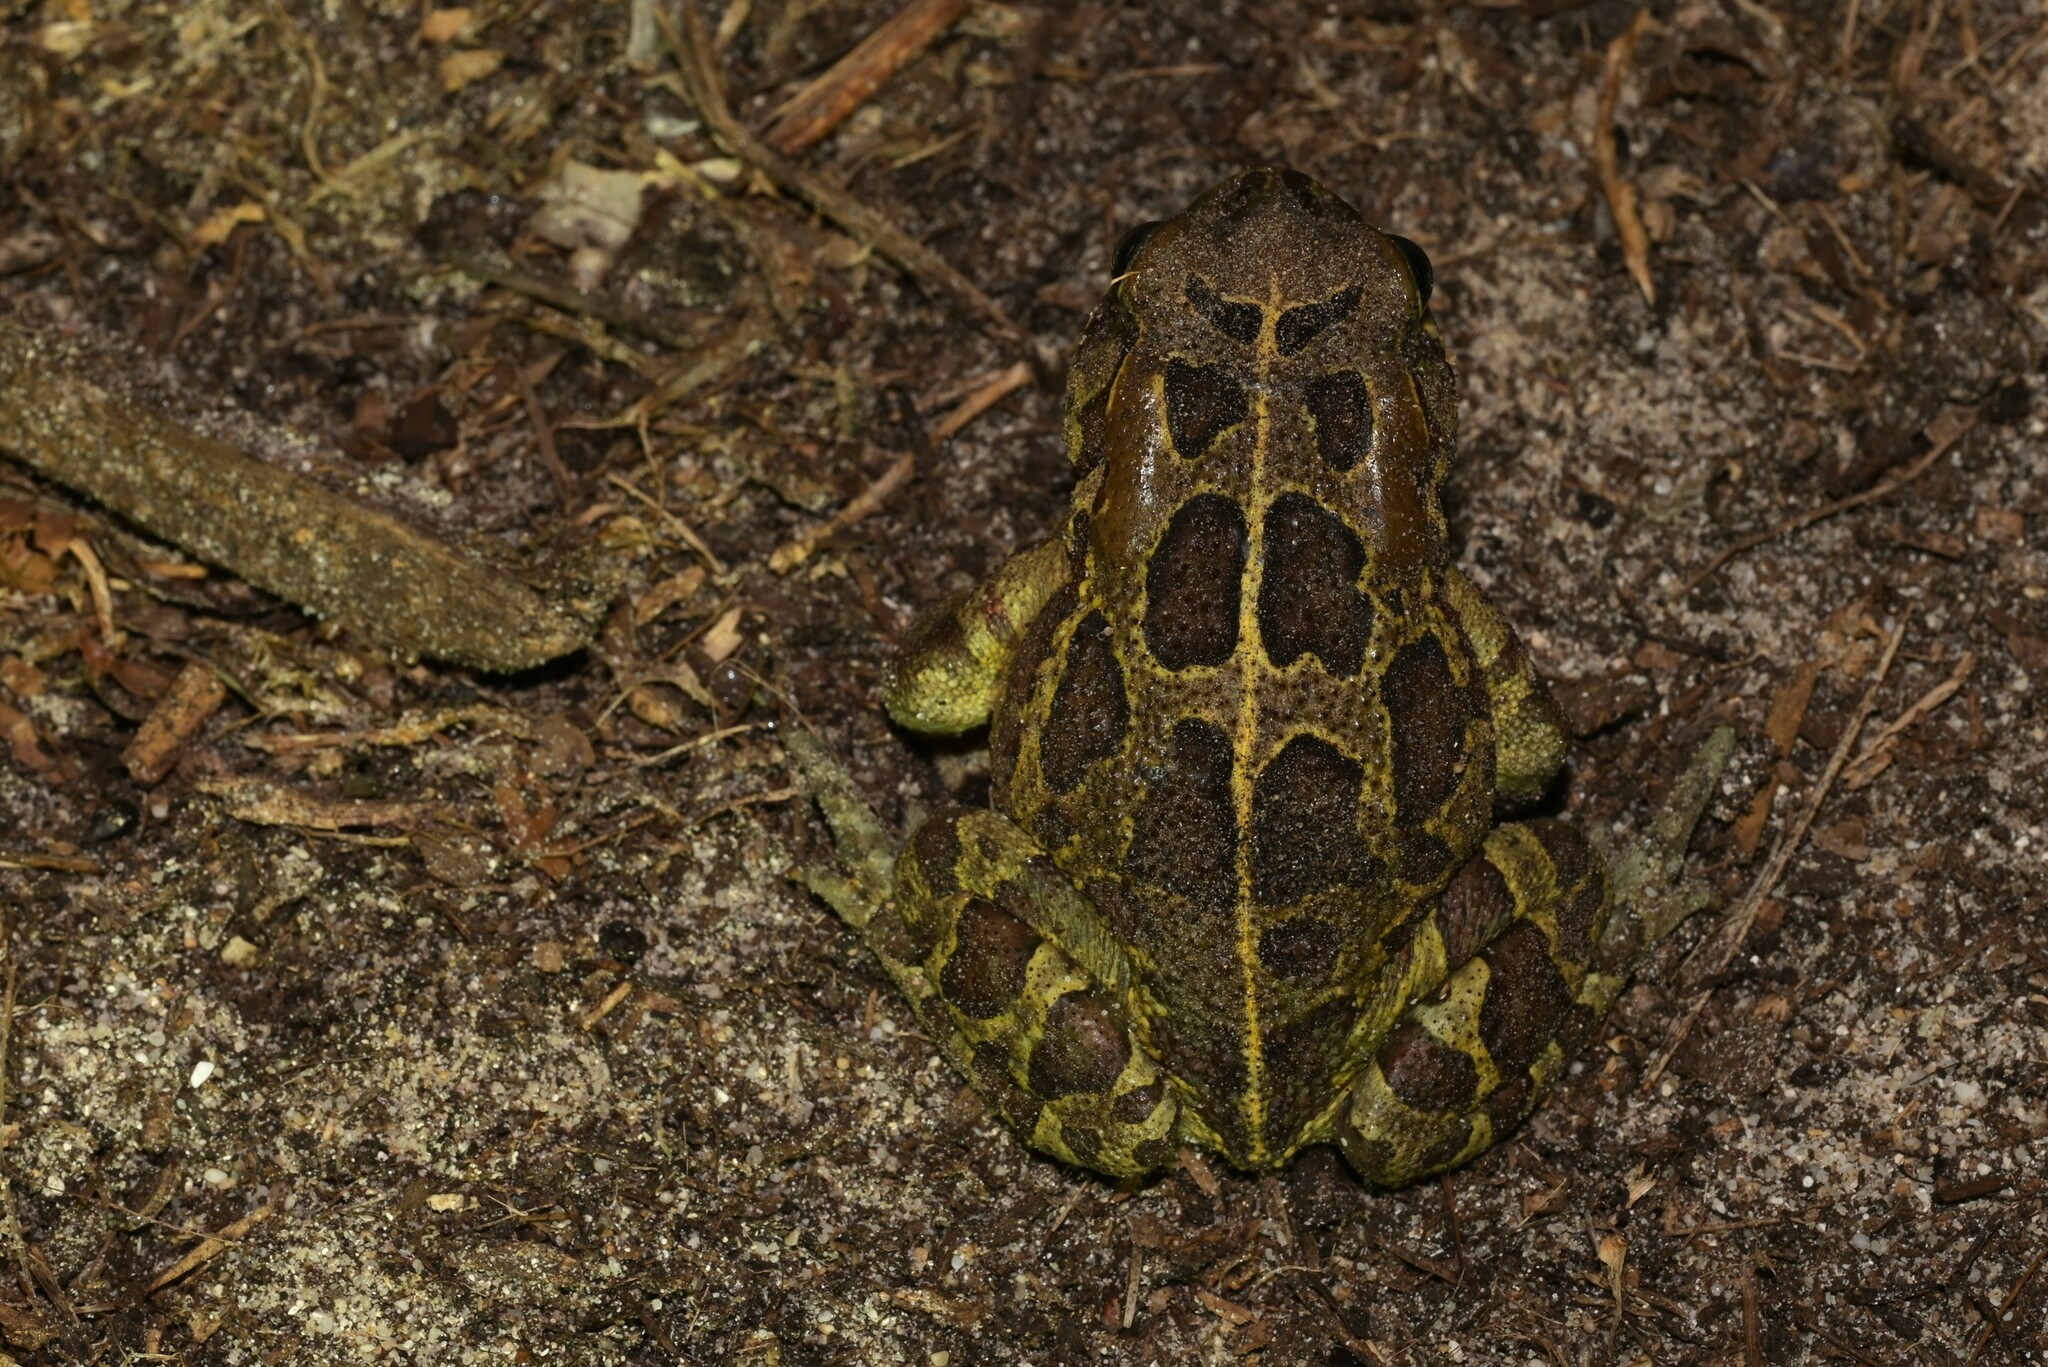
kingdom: Animalia
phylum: Chordata
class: Amphibia
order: Anura
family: Bufonidae
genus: Sclerophrys
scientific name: Sclerophrys pantherina
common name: Panther toad
